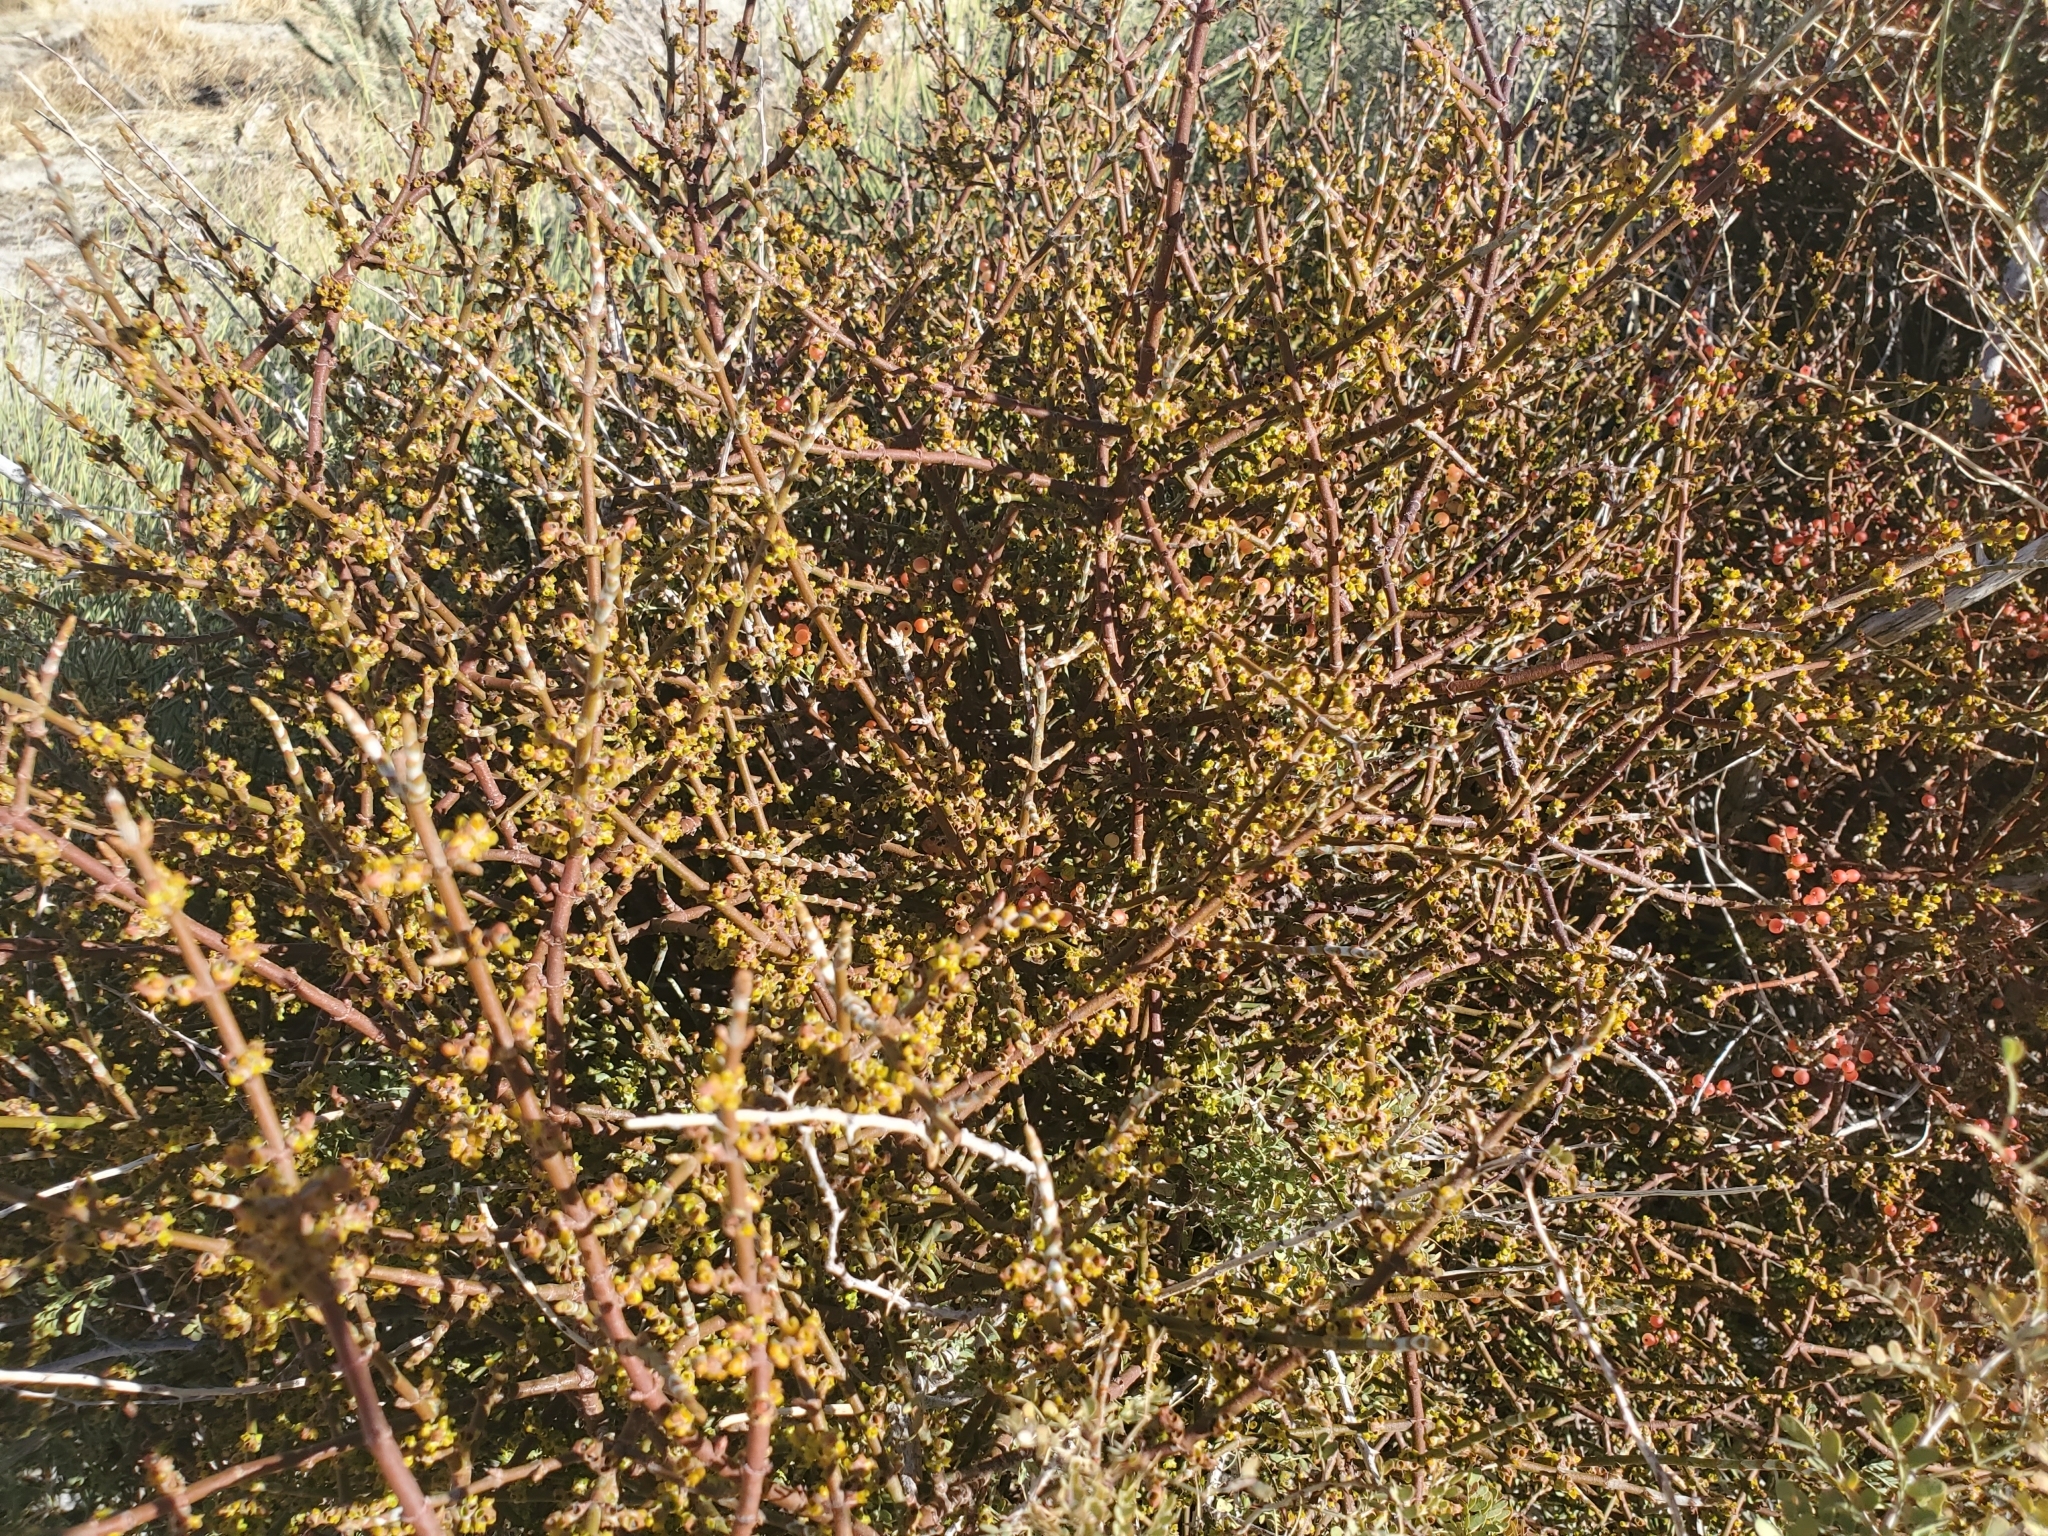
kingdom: Plantae
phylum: Tracheophyta
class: Magnoliopsida
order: Santalales
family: Viscaceae
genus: Phoradendron
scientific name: Phoradendron californicum
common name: Acacia mistletoe
